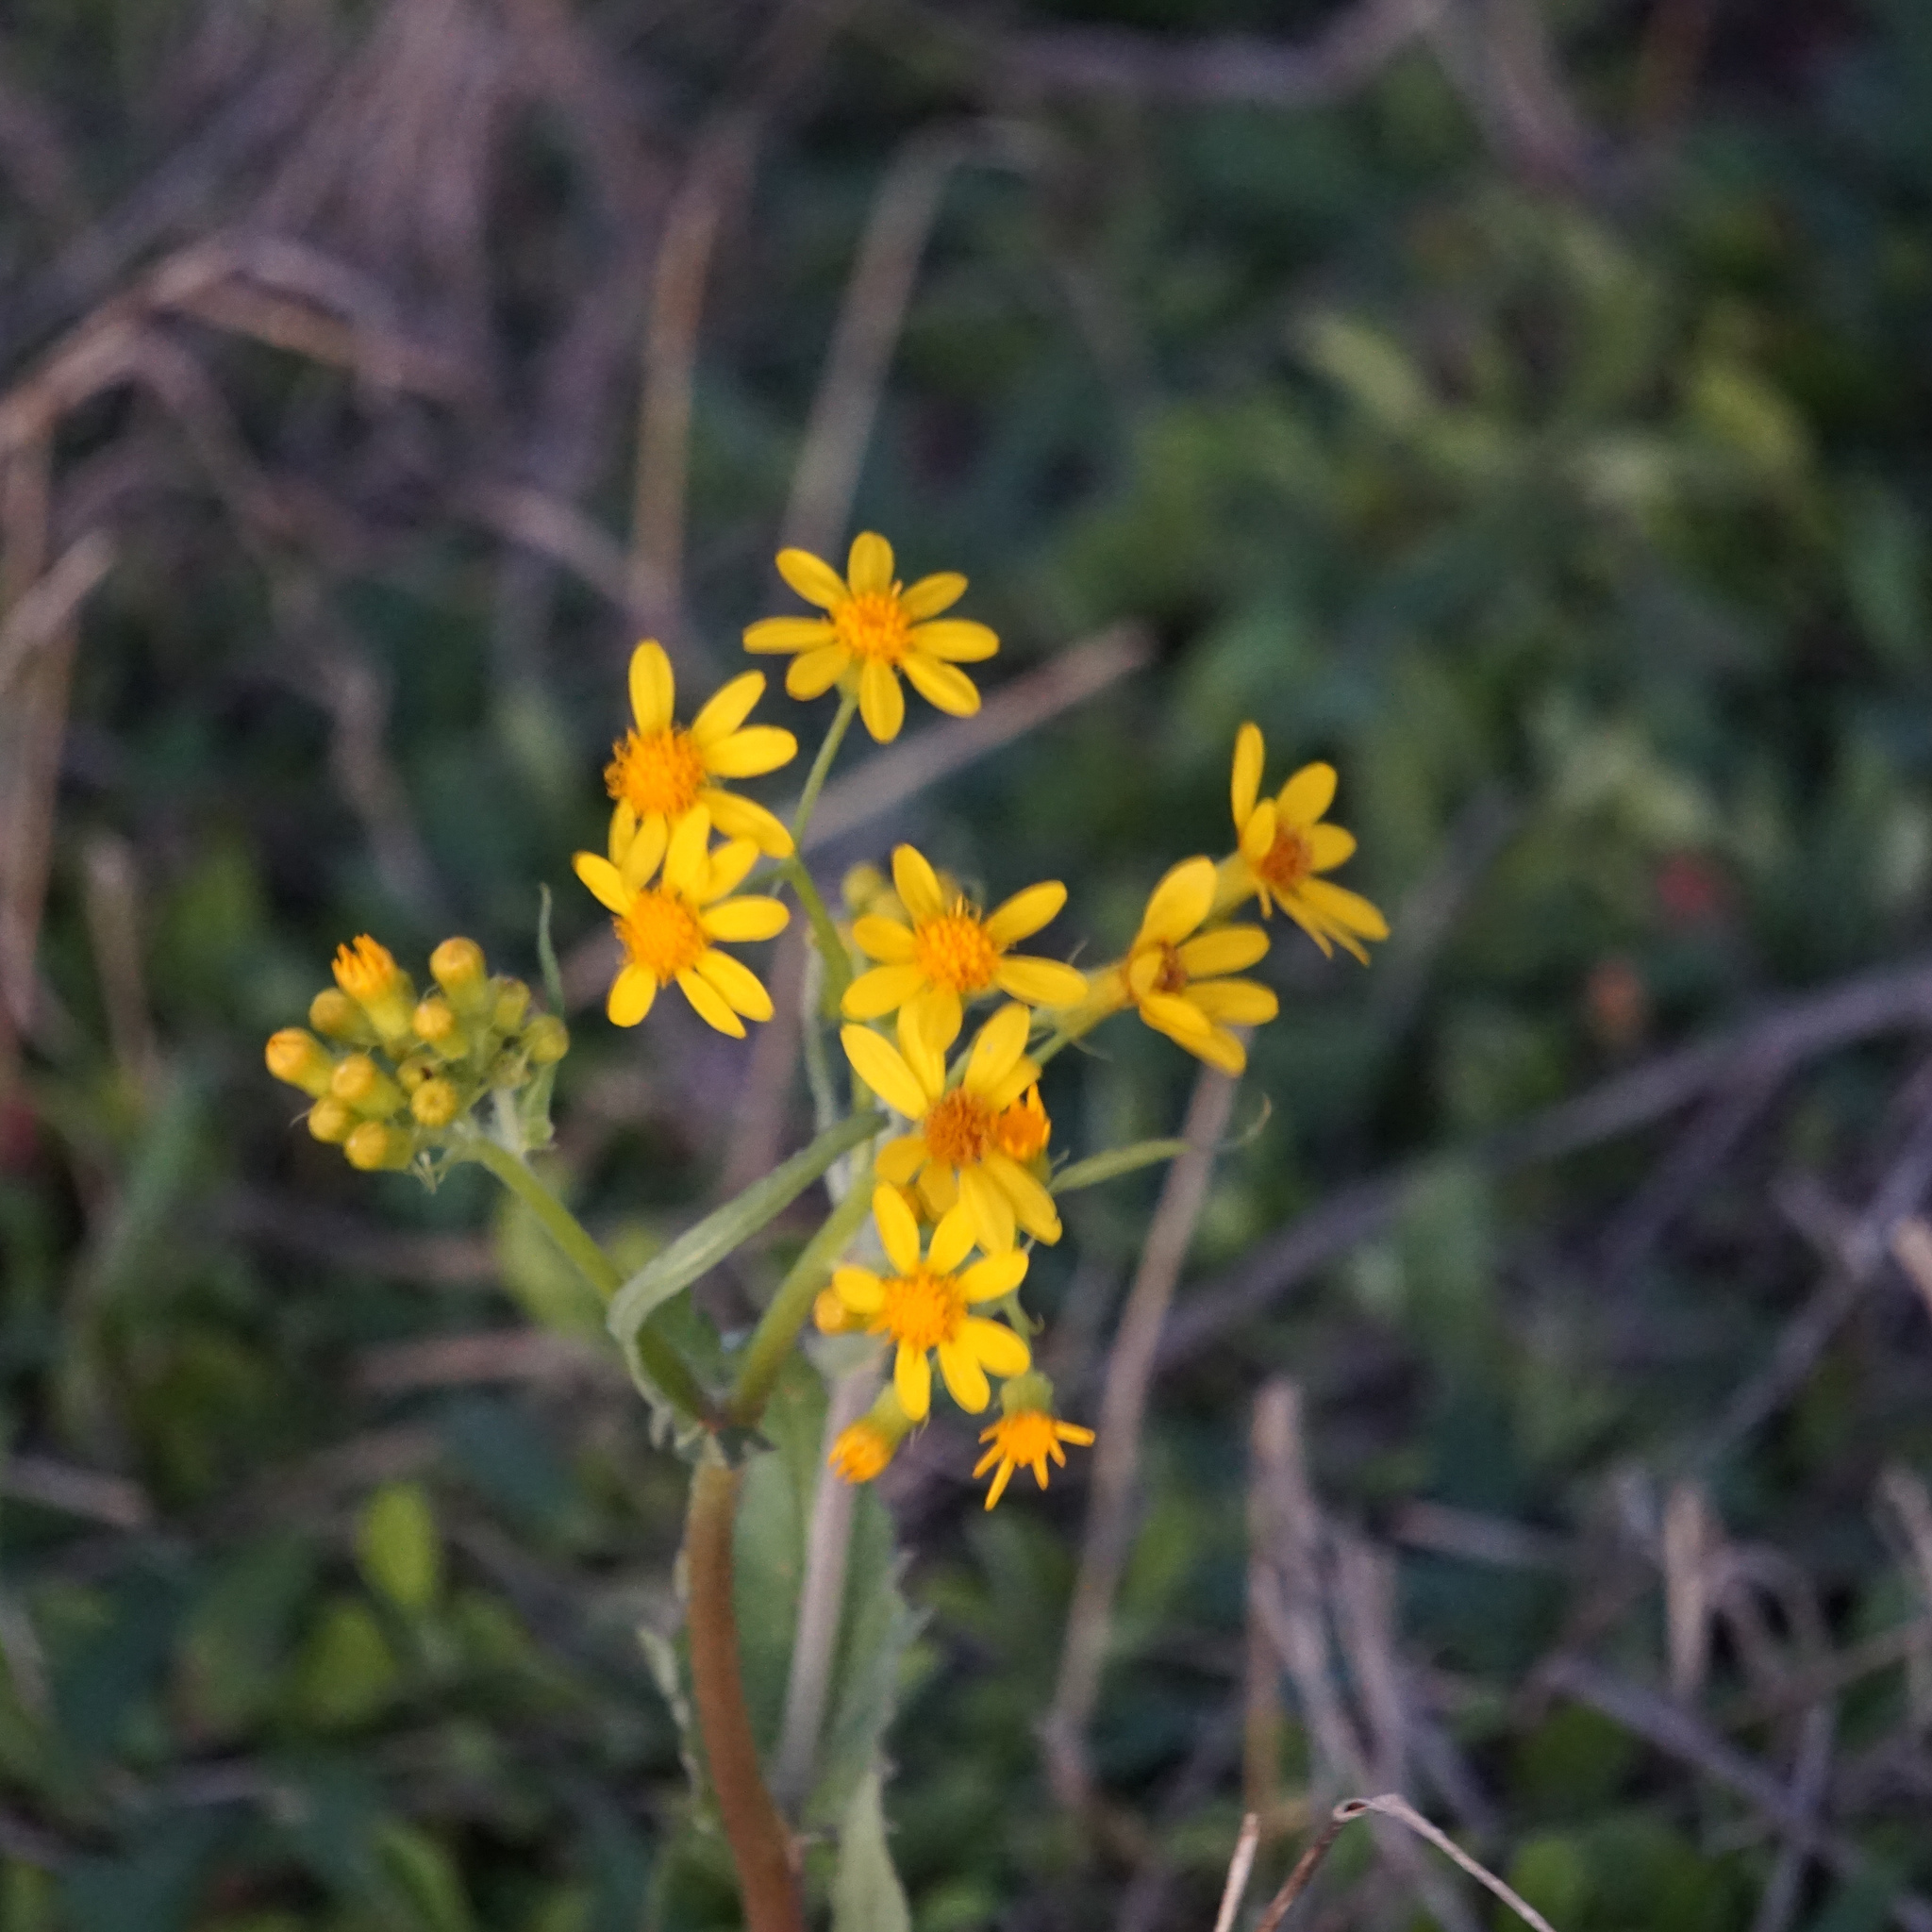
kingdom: Plantae
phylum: Tracheophyta
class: Magnoliopsida
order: Asterales
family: Asteraceae
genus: Senecio
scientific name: Senecio ampullaceus
